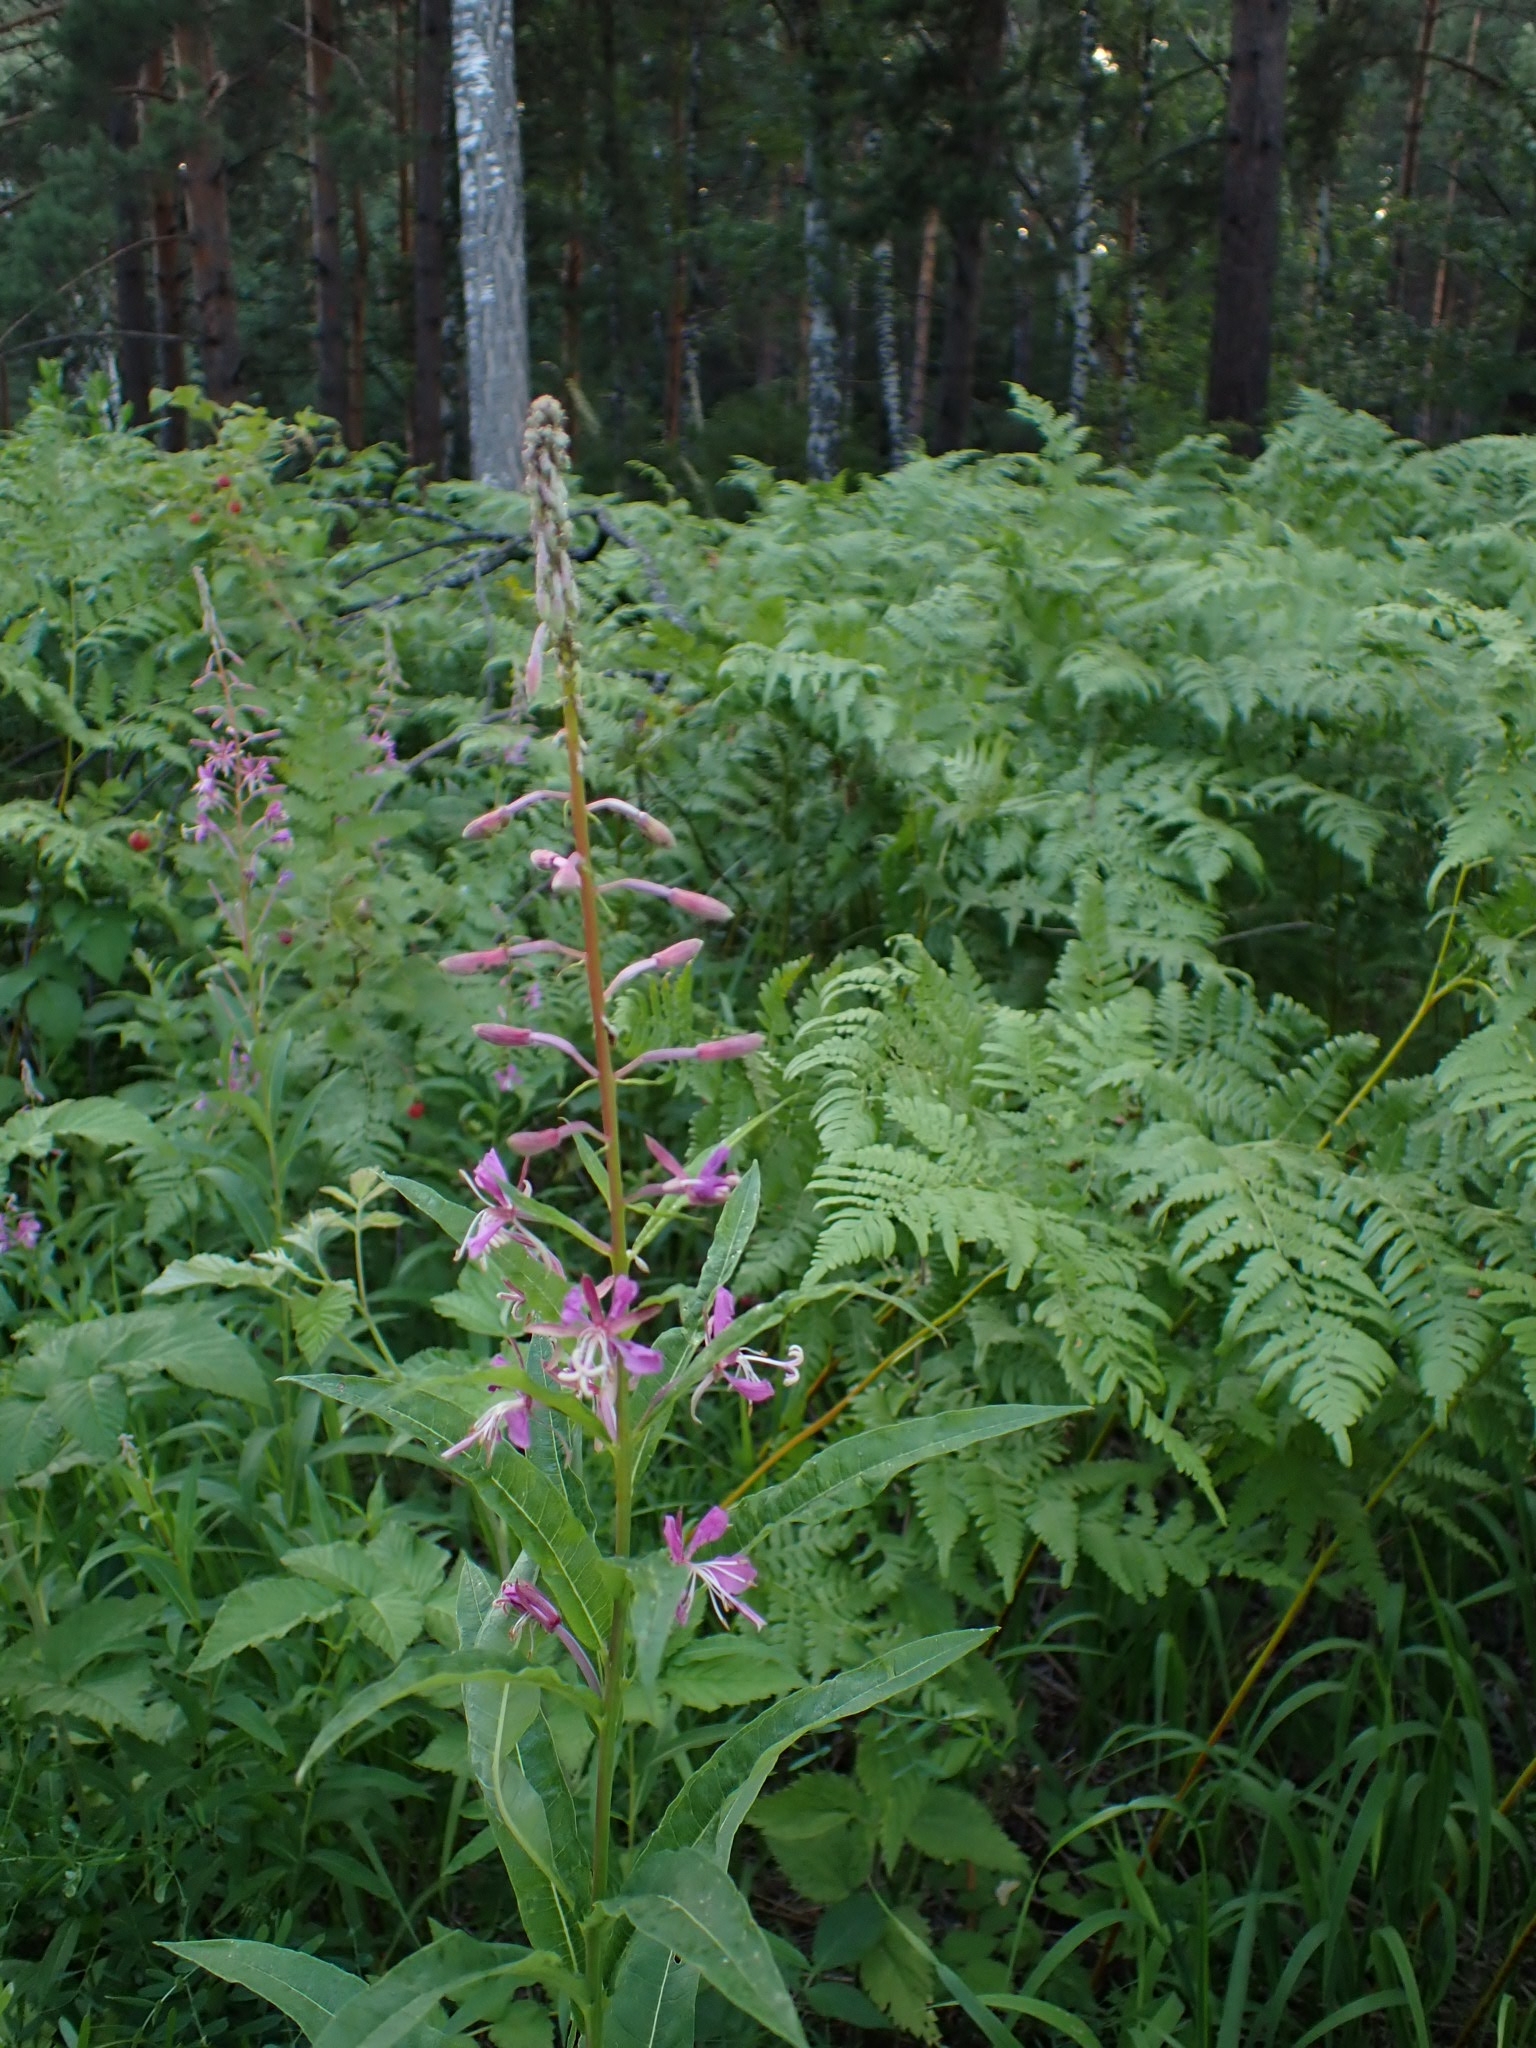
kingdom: Plantae
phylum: Tracheophyta
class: Magnoliopsida
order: Myrtales
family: Onagraceae
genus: Chamaenerion
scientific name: Chamaenerion angustifolium
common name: Fireweed
